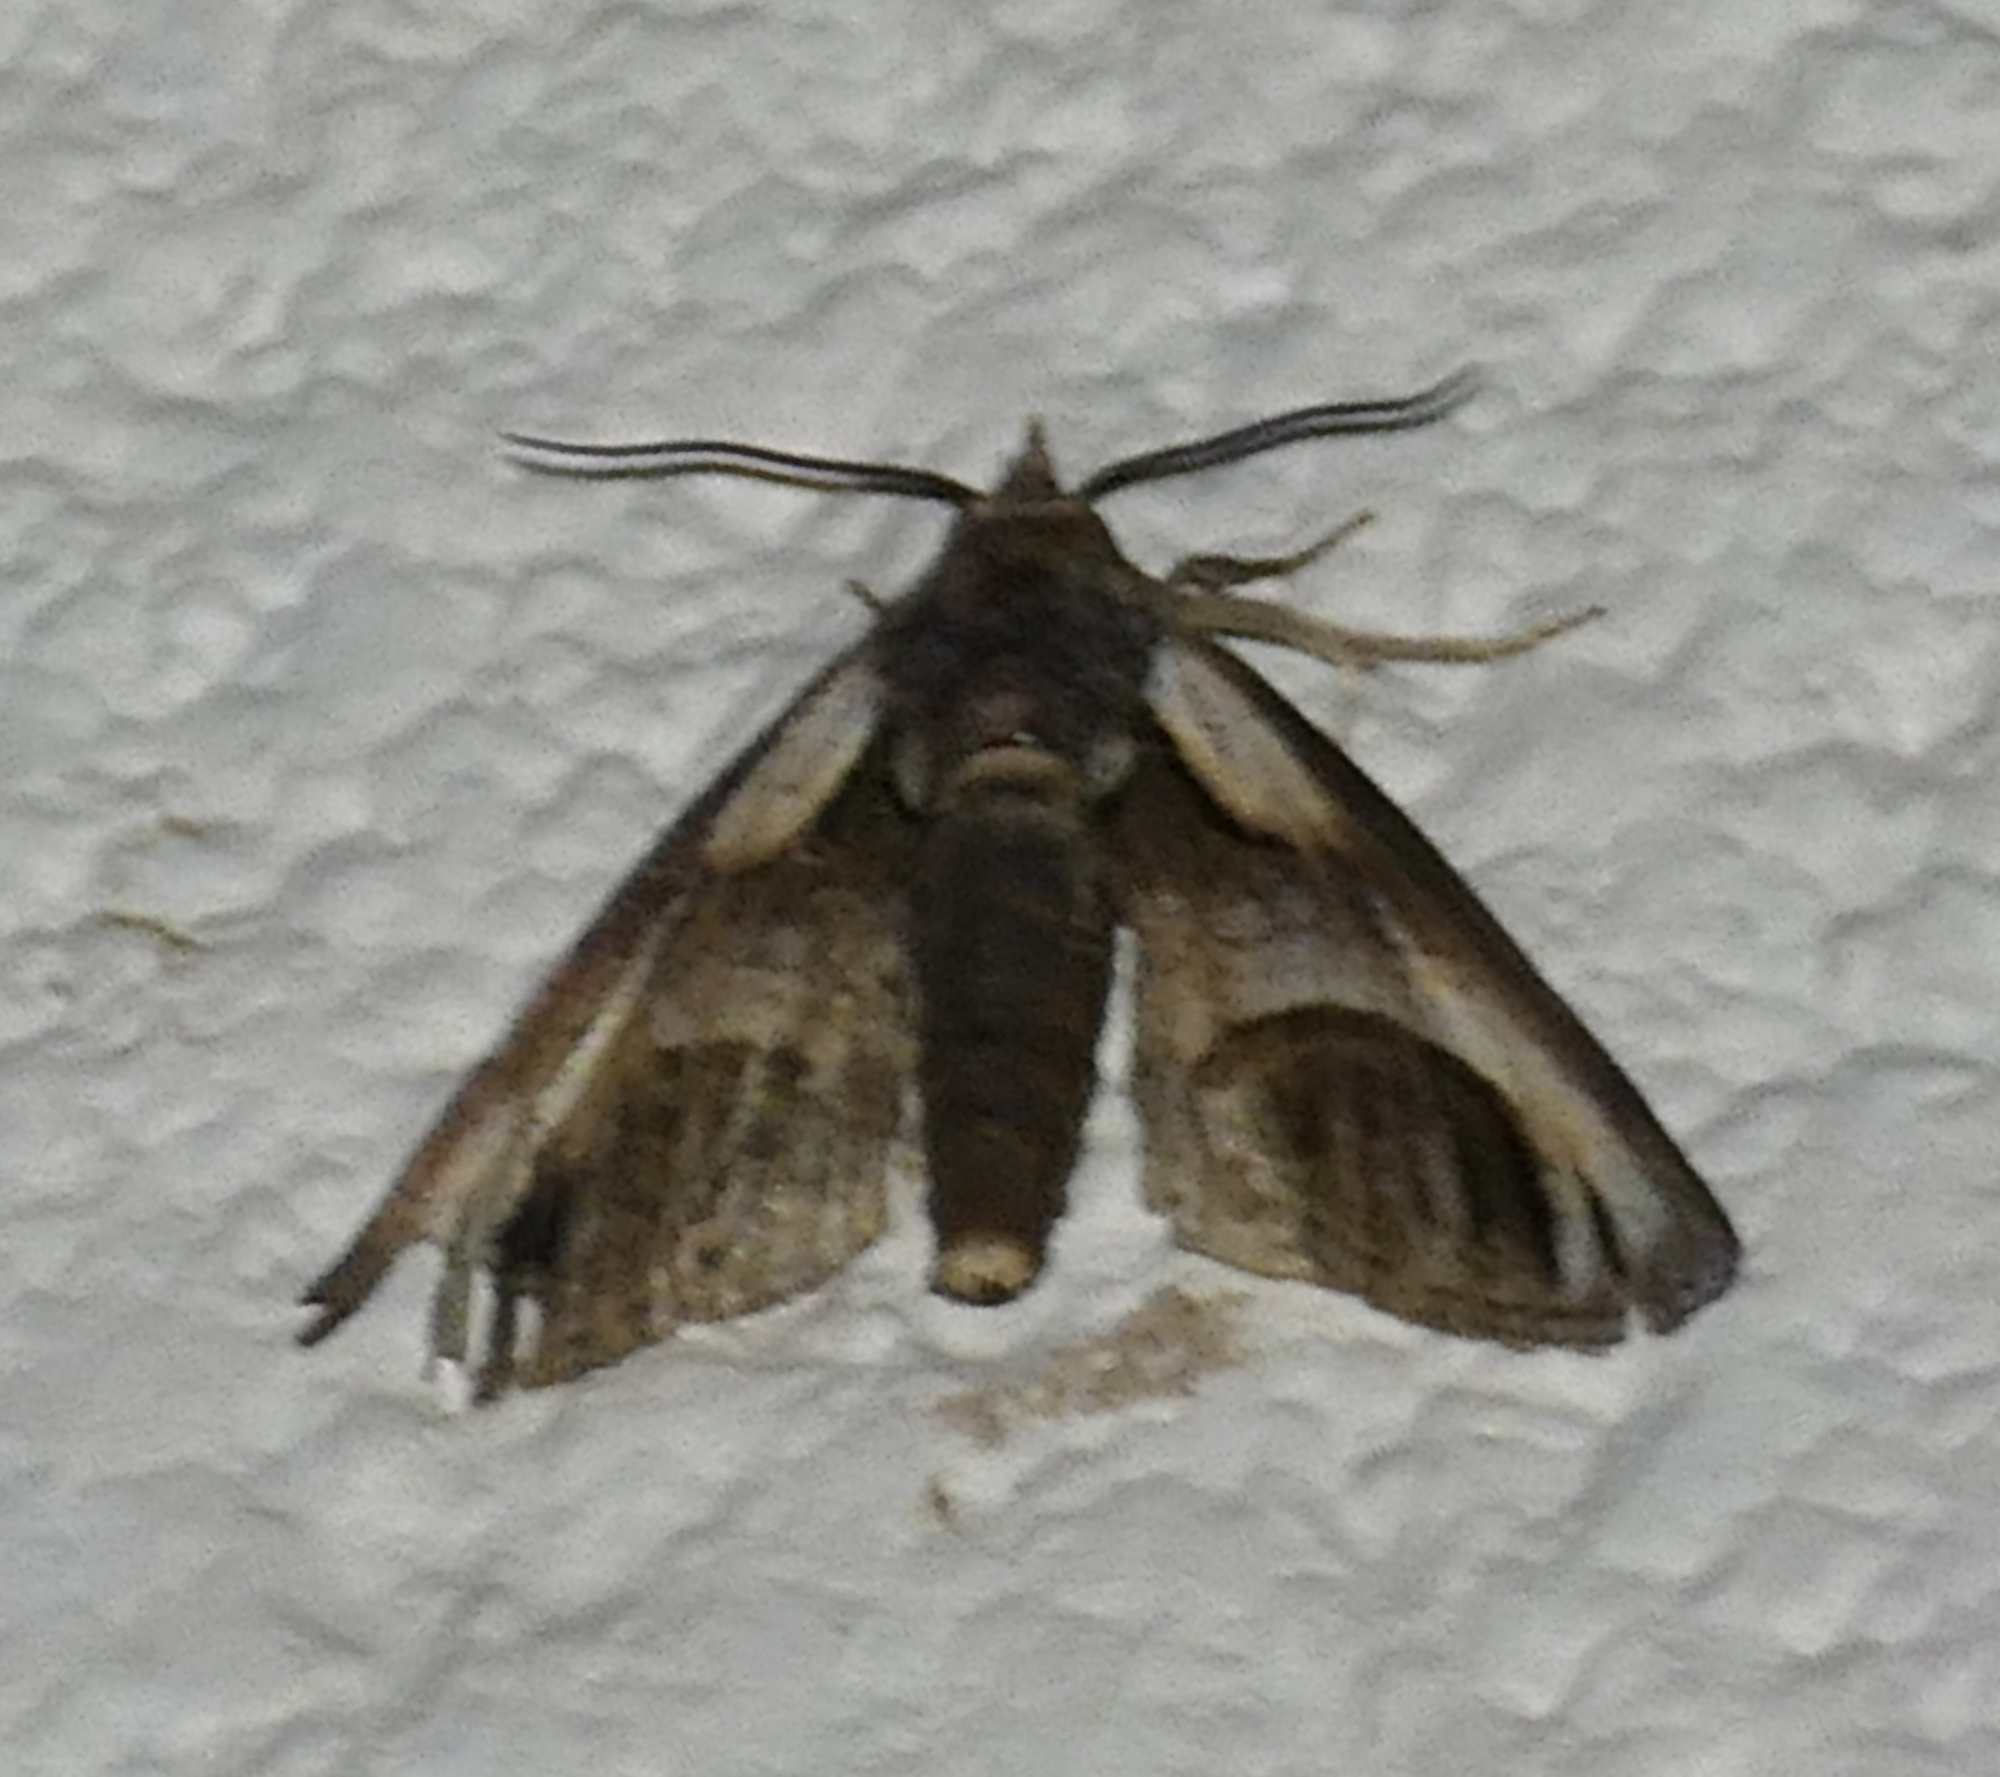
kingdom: Animalia
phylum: Arthropoda
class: Insecta
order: Lepidoptera
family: Euteliidae
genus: Paectes
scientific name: Paectes oculatrix
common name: Eyed paectes moth
